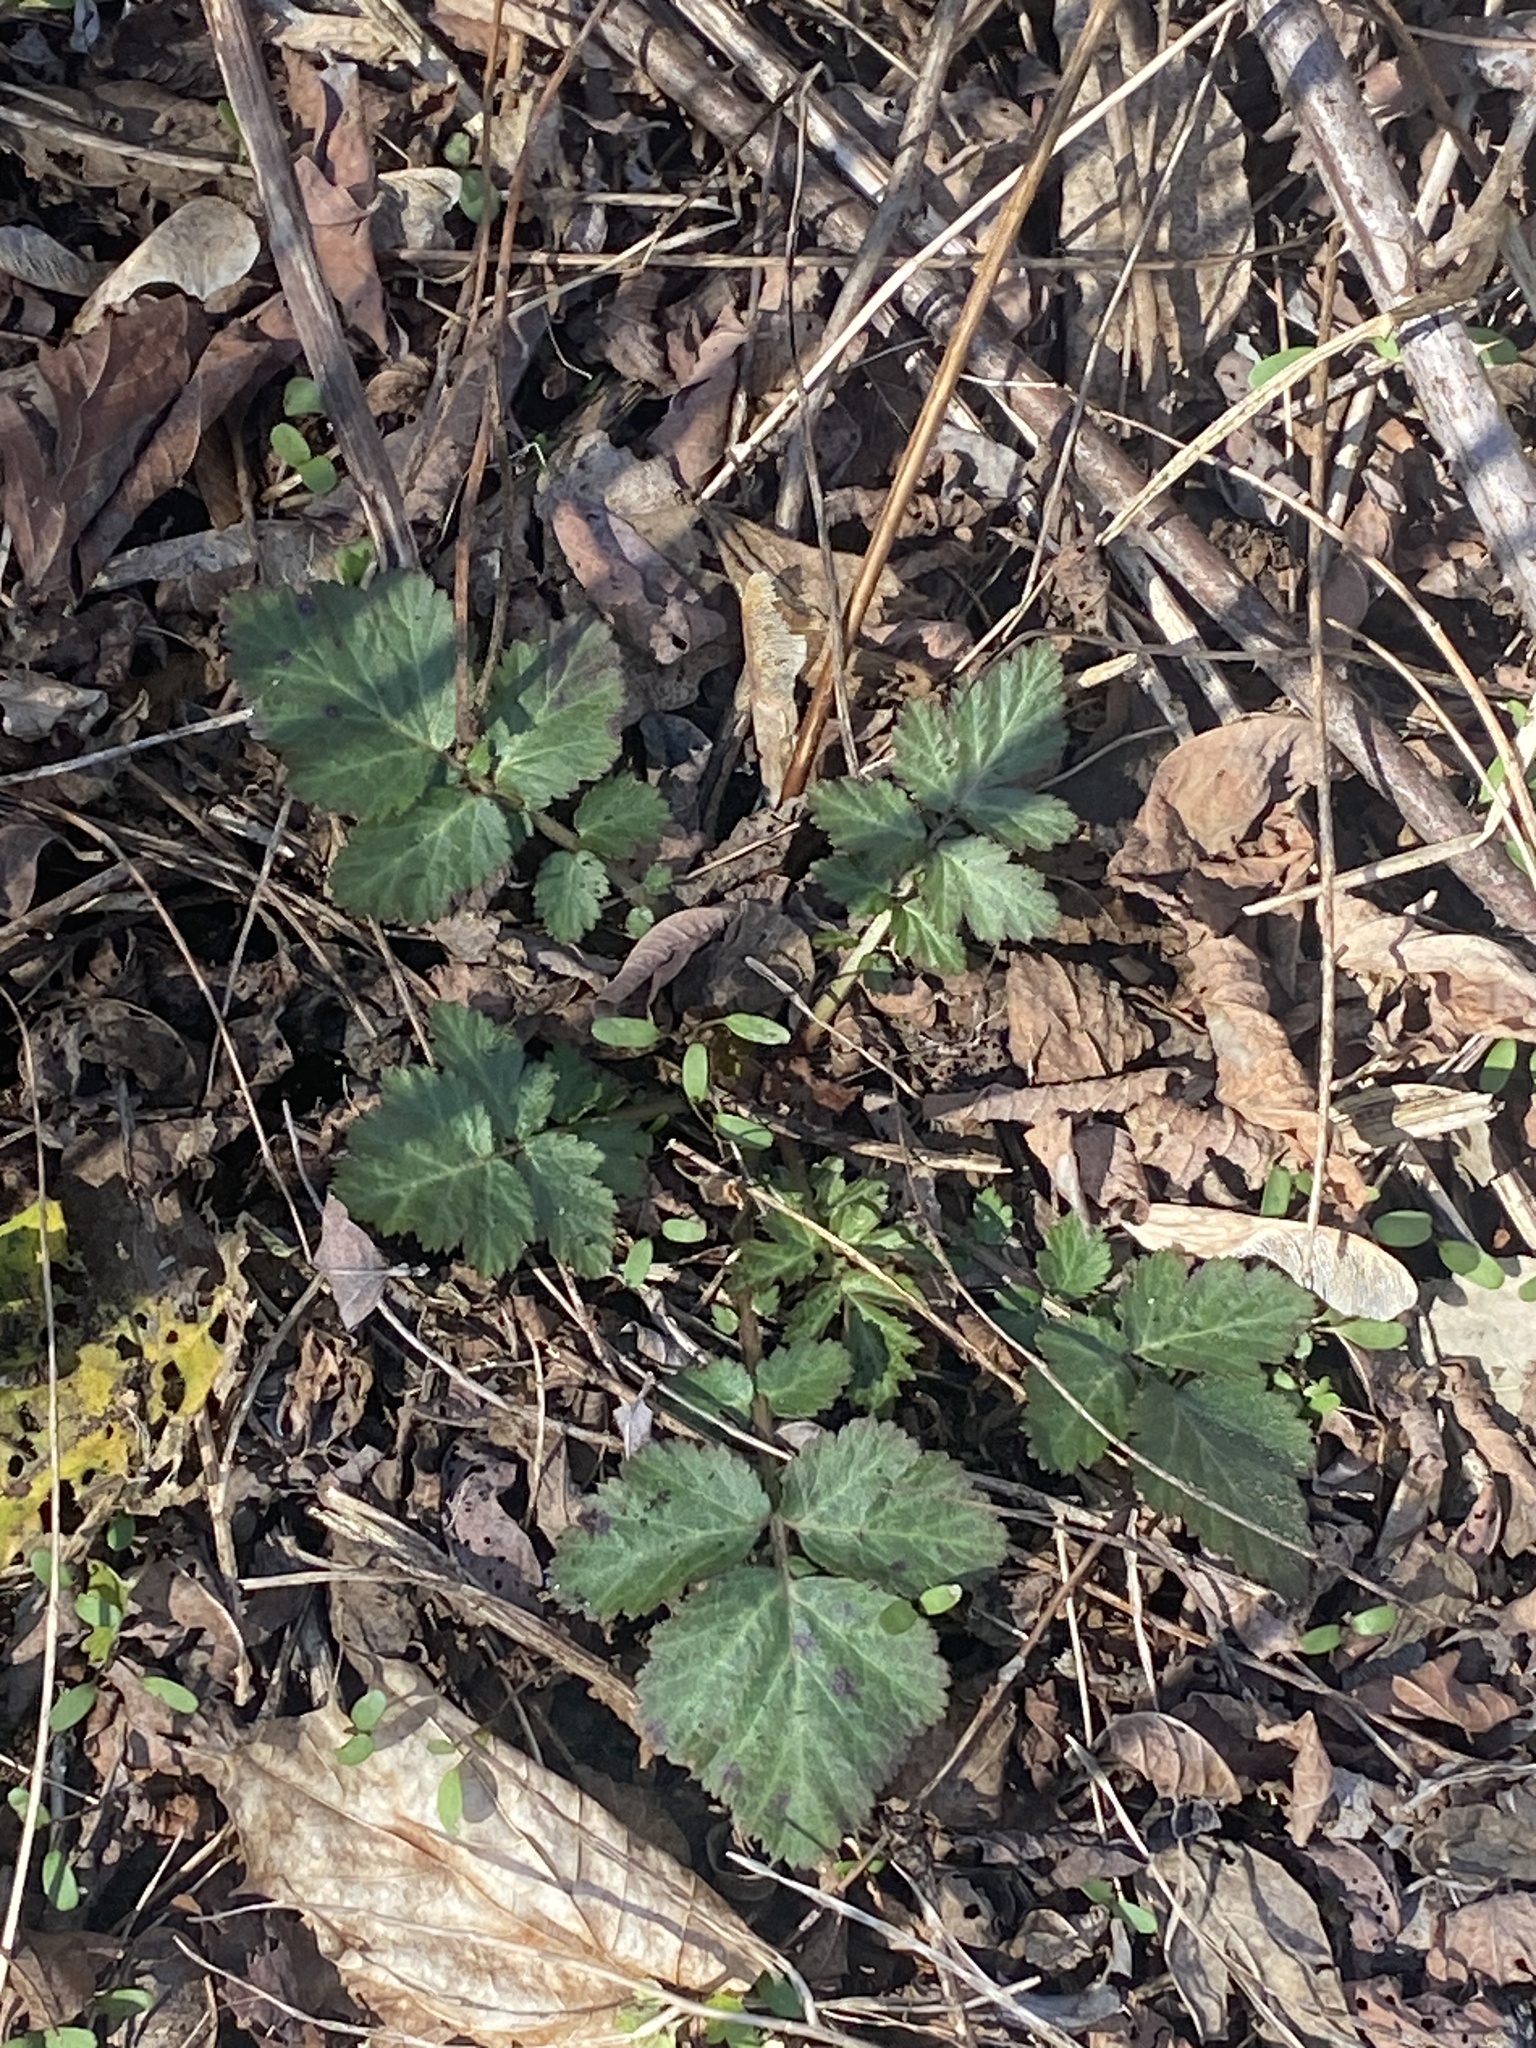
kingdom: Plantae
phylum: Tracheophyta
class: Magnoliopsida
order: Rosales
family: Rosaceae
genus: Geum
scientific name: Geum canadense
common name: White avens
